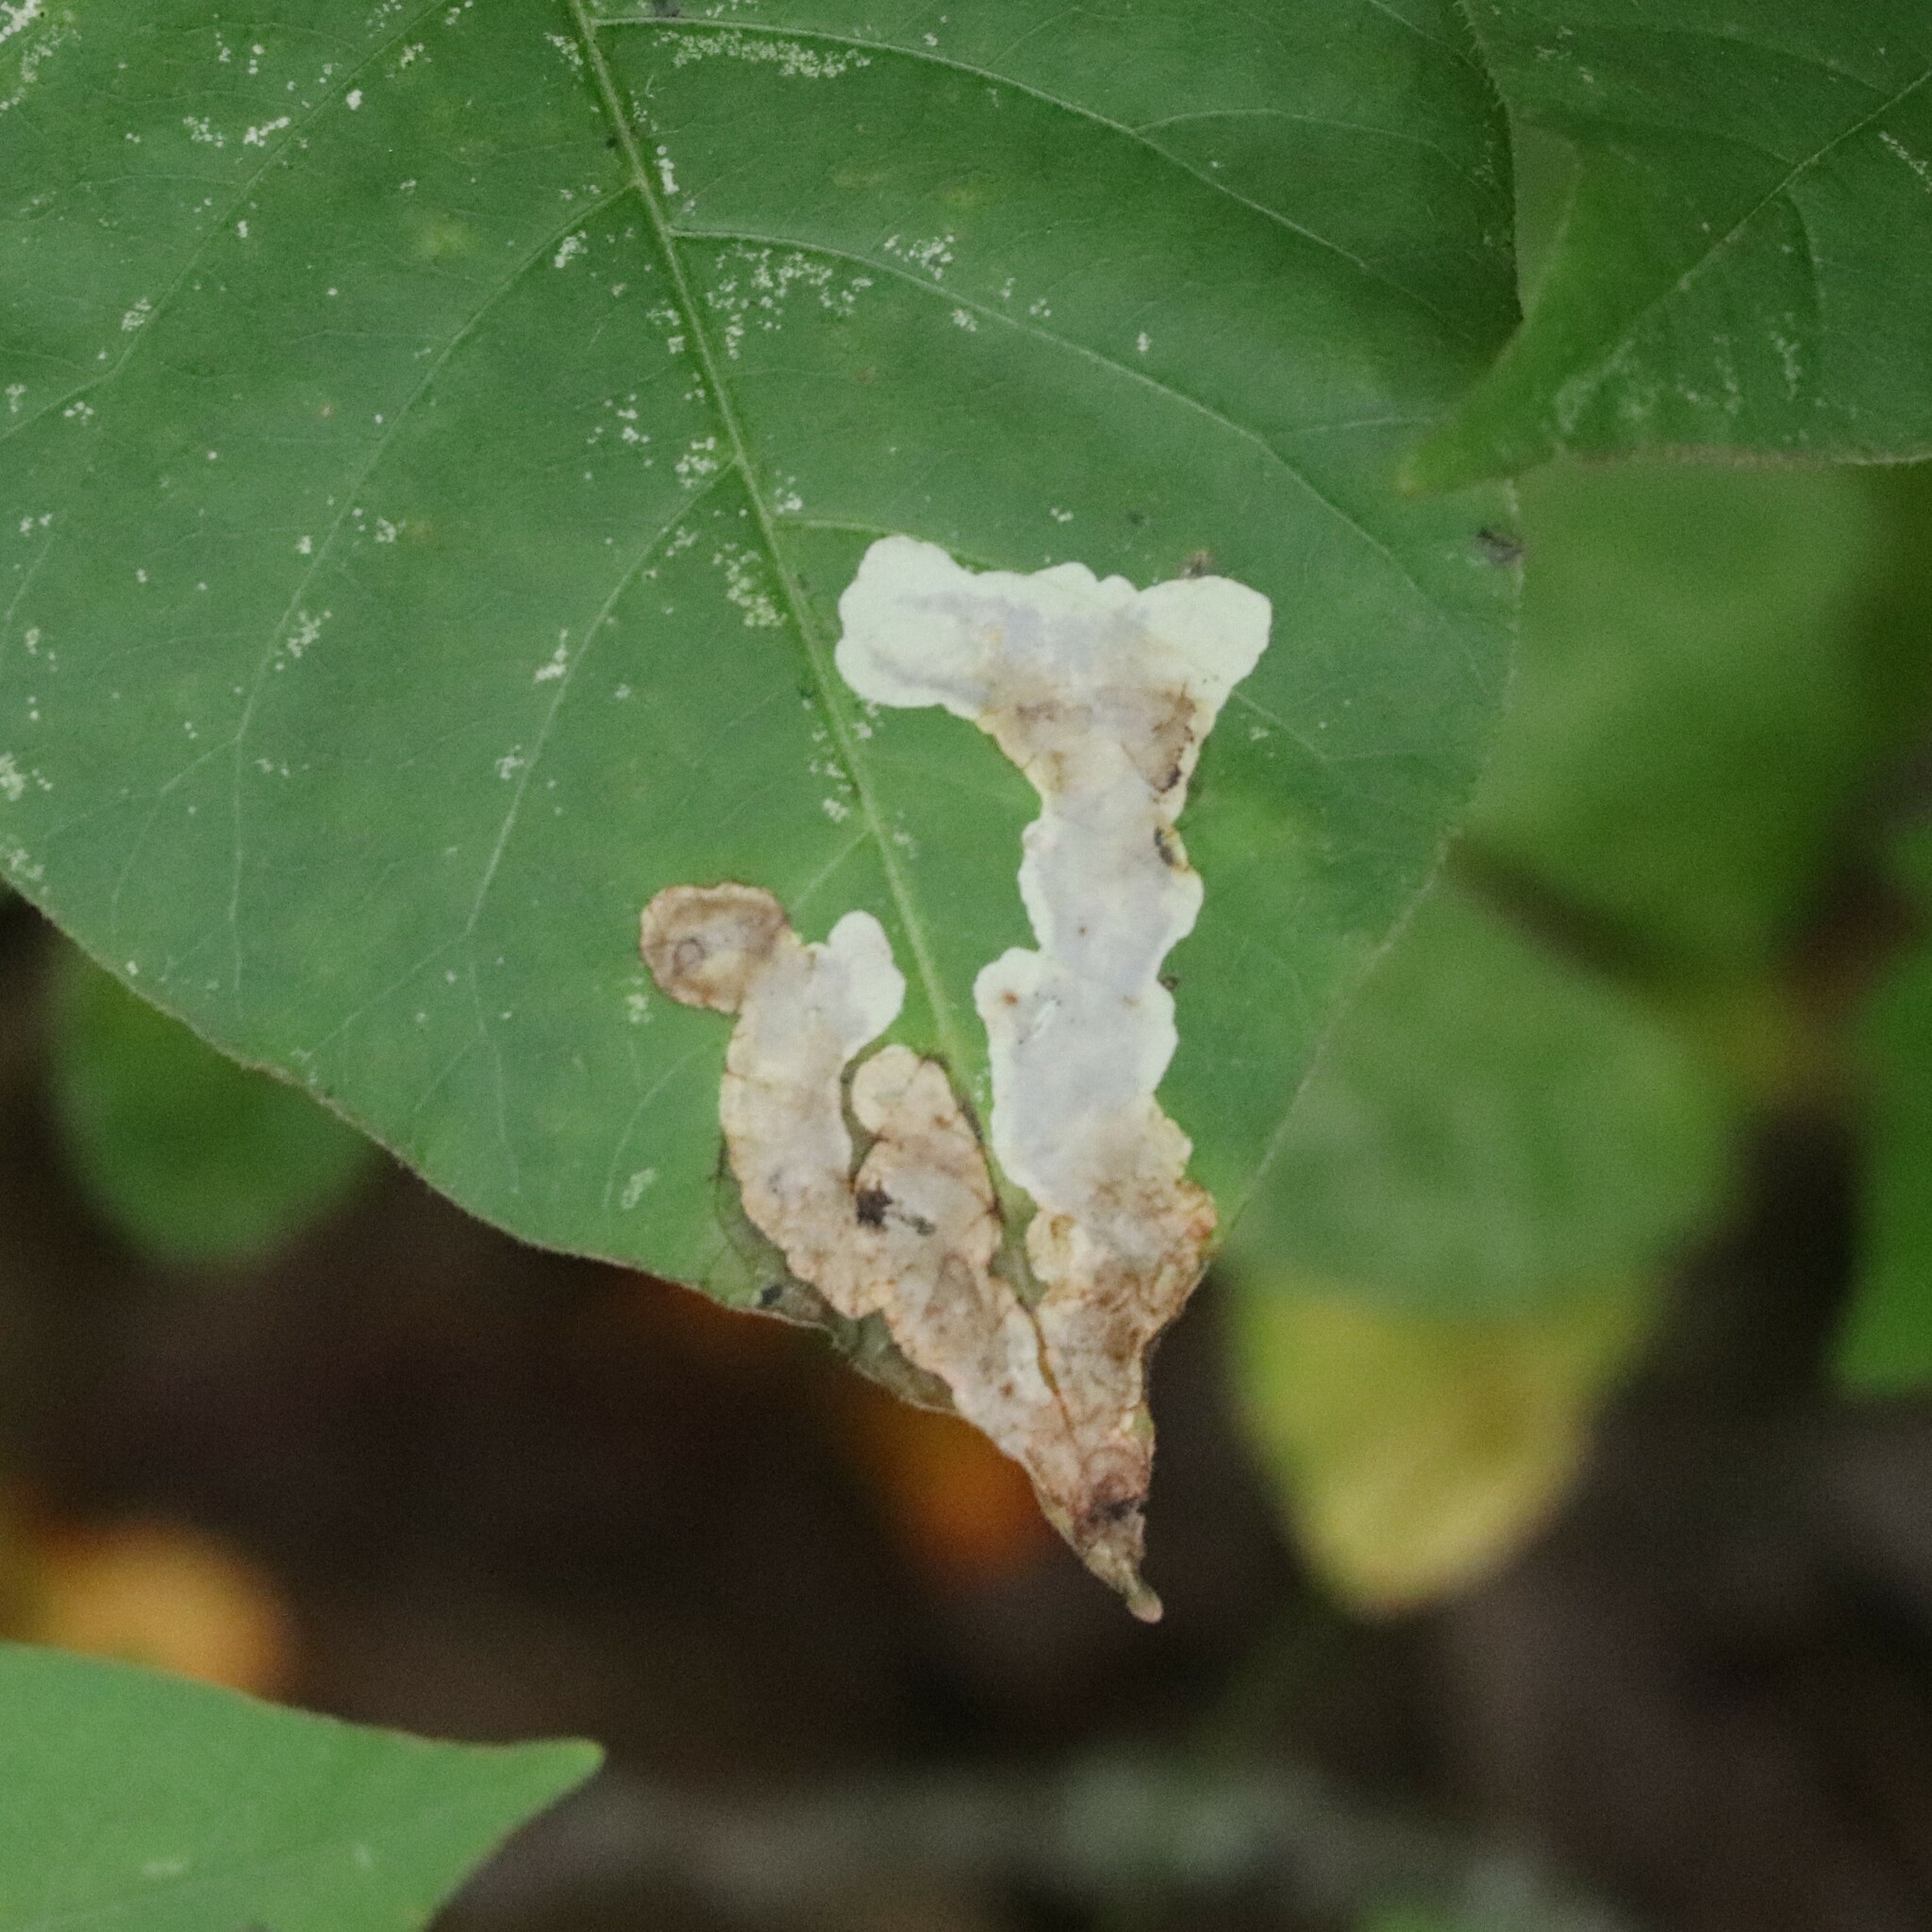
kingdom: Animalia
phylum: Arthropoda
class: Insecta
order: Lepidoptera
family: Gracillariidae
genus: Cameraria
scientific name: Cameraria guttifinitella
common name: Poison ivy leaf-miner moth
